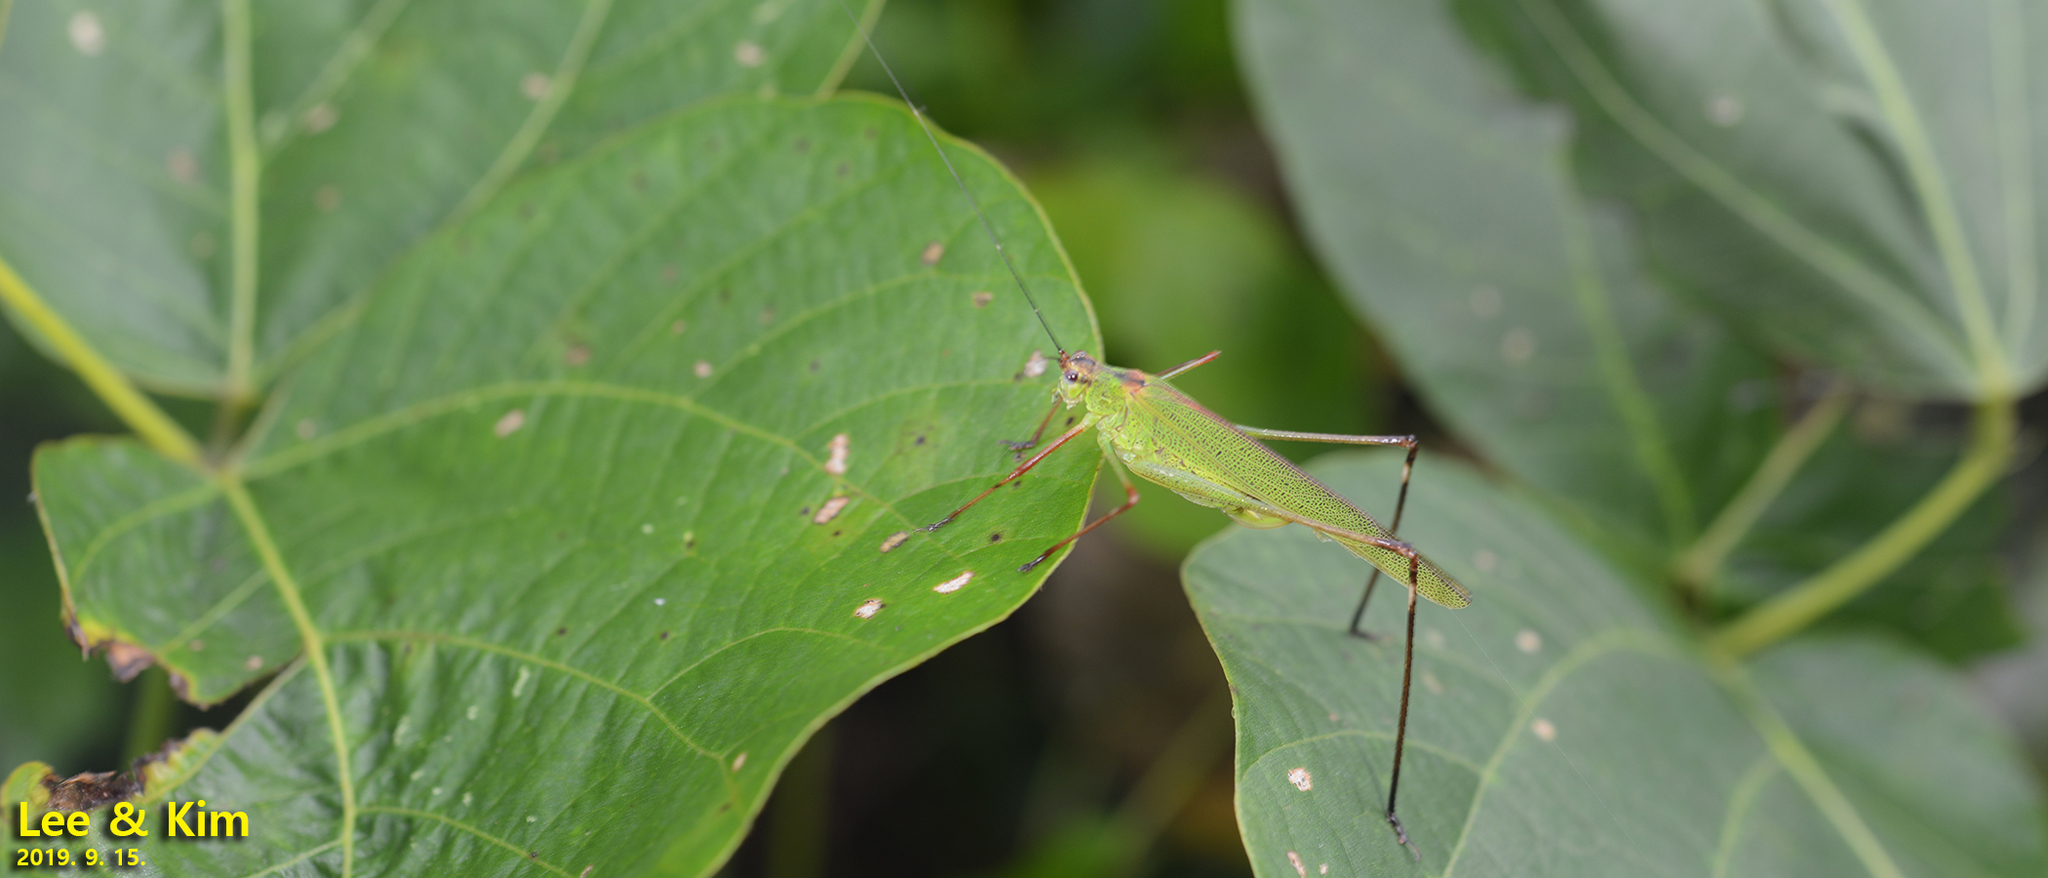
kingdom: Animalia
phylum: Arthropoda
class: Insecta
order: Orthoptera
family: Tettigoniidae
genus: Phaneroptera
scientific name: Phaneroptera nigroantennata
